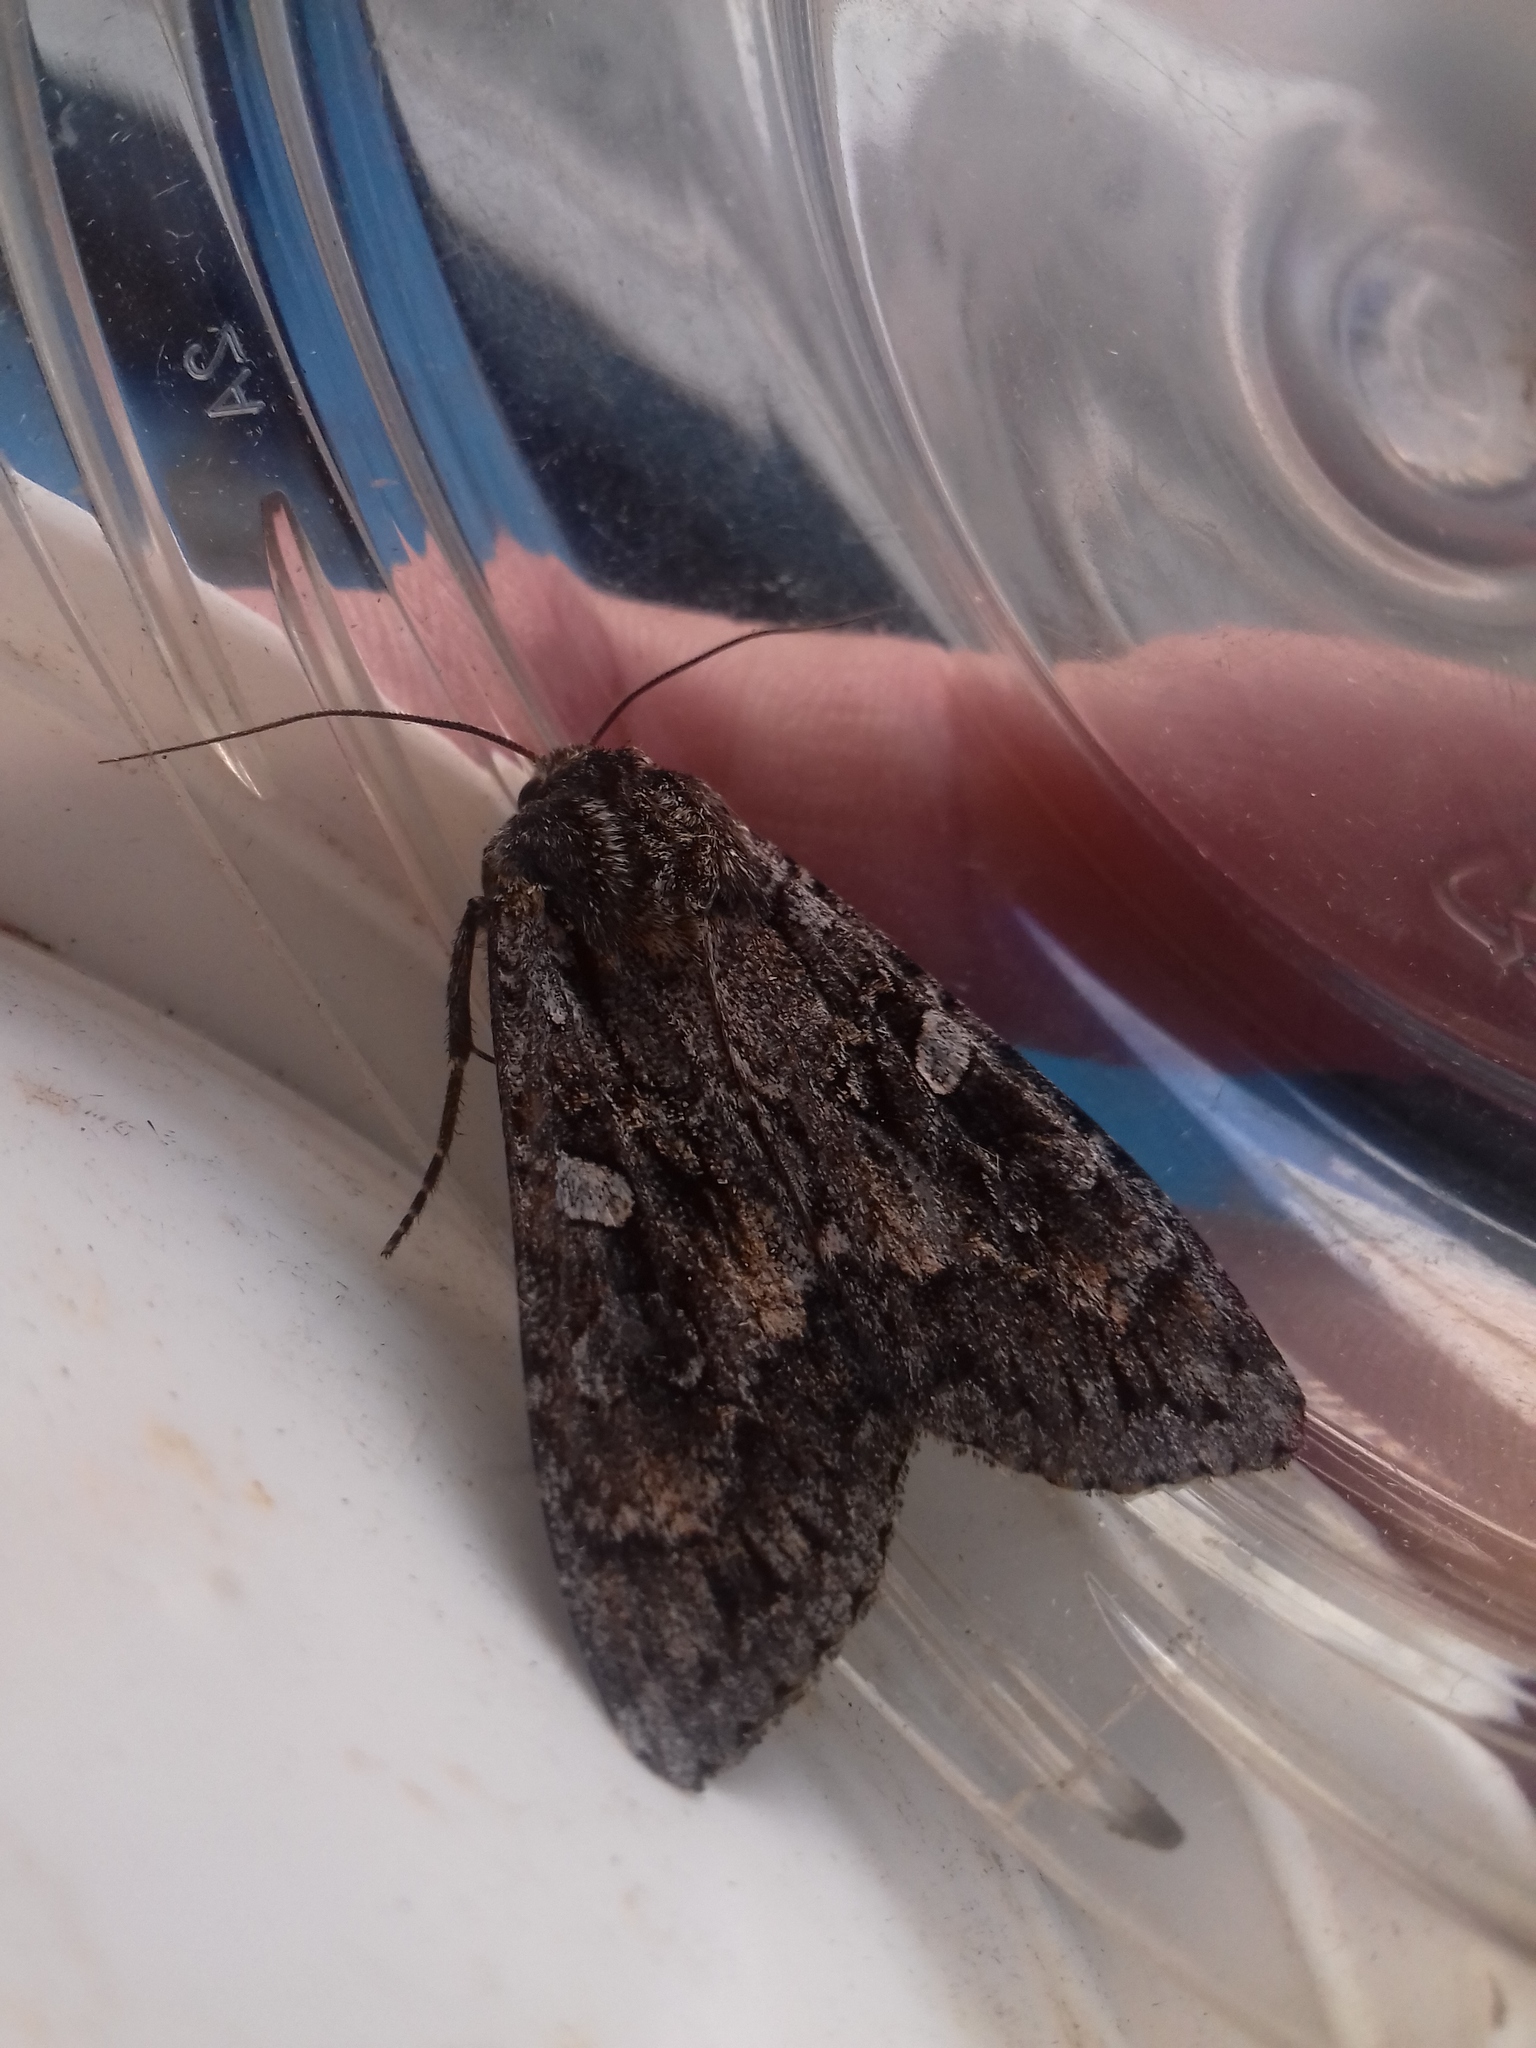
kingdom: Animalia
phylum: Arthropoda
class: Insecta
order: Lepidoptera
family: Noctuidae
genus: Eurois
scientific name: Eurois occulta
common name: Great brocade
